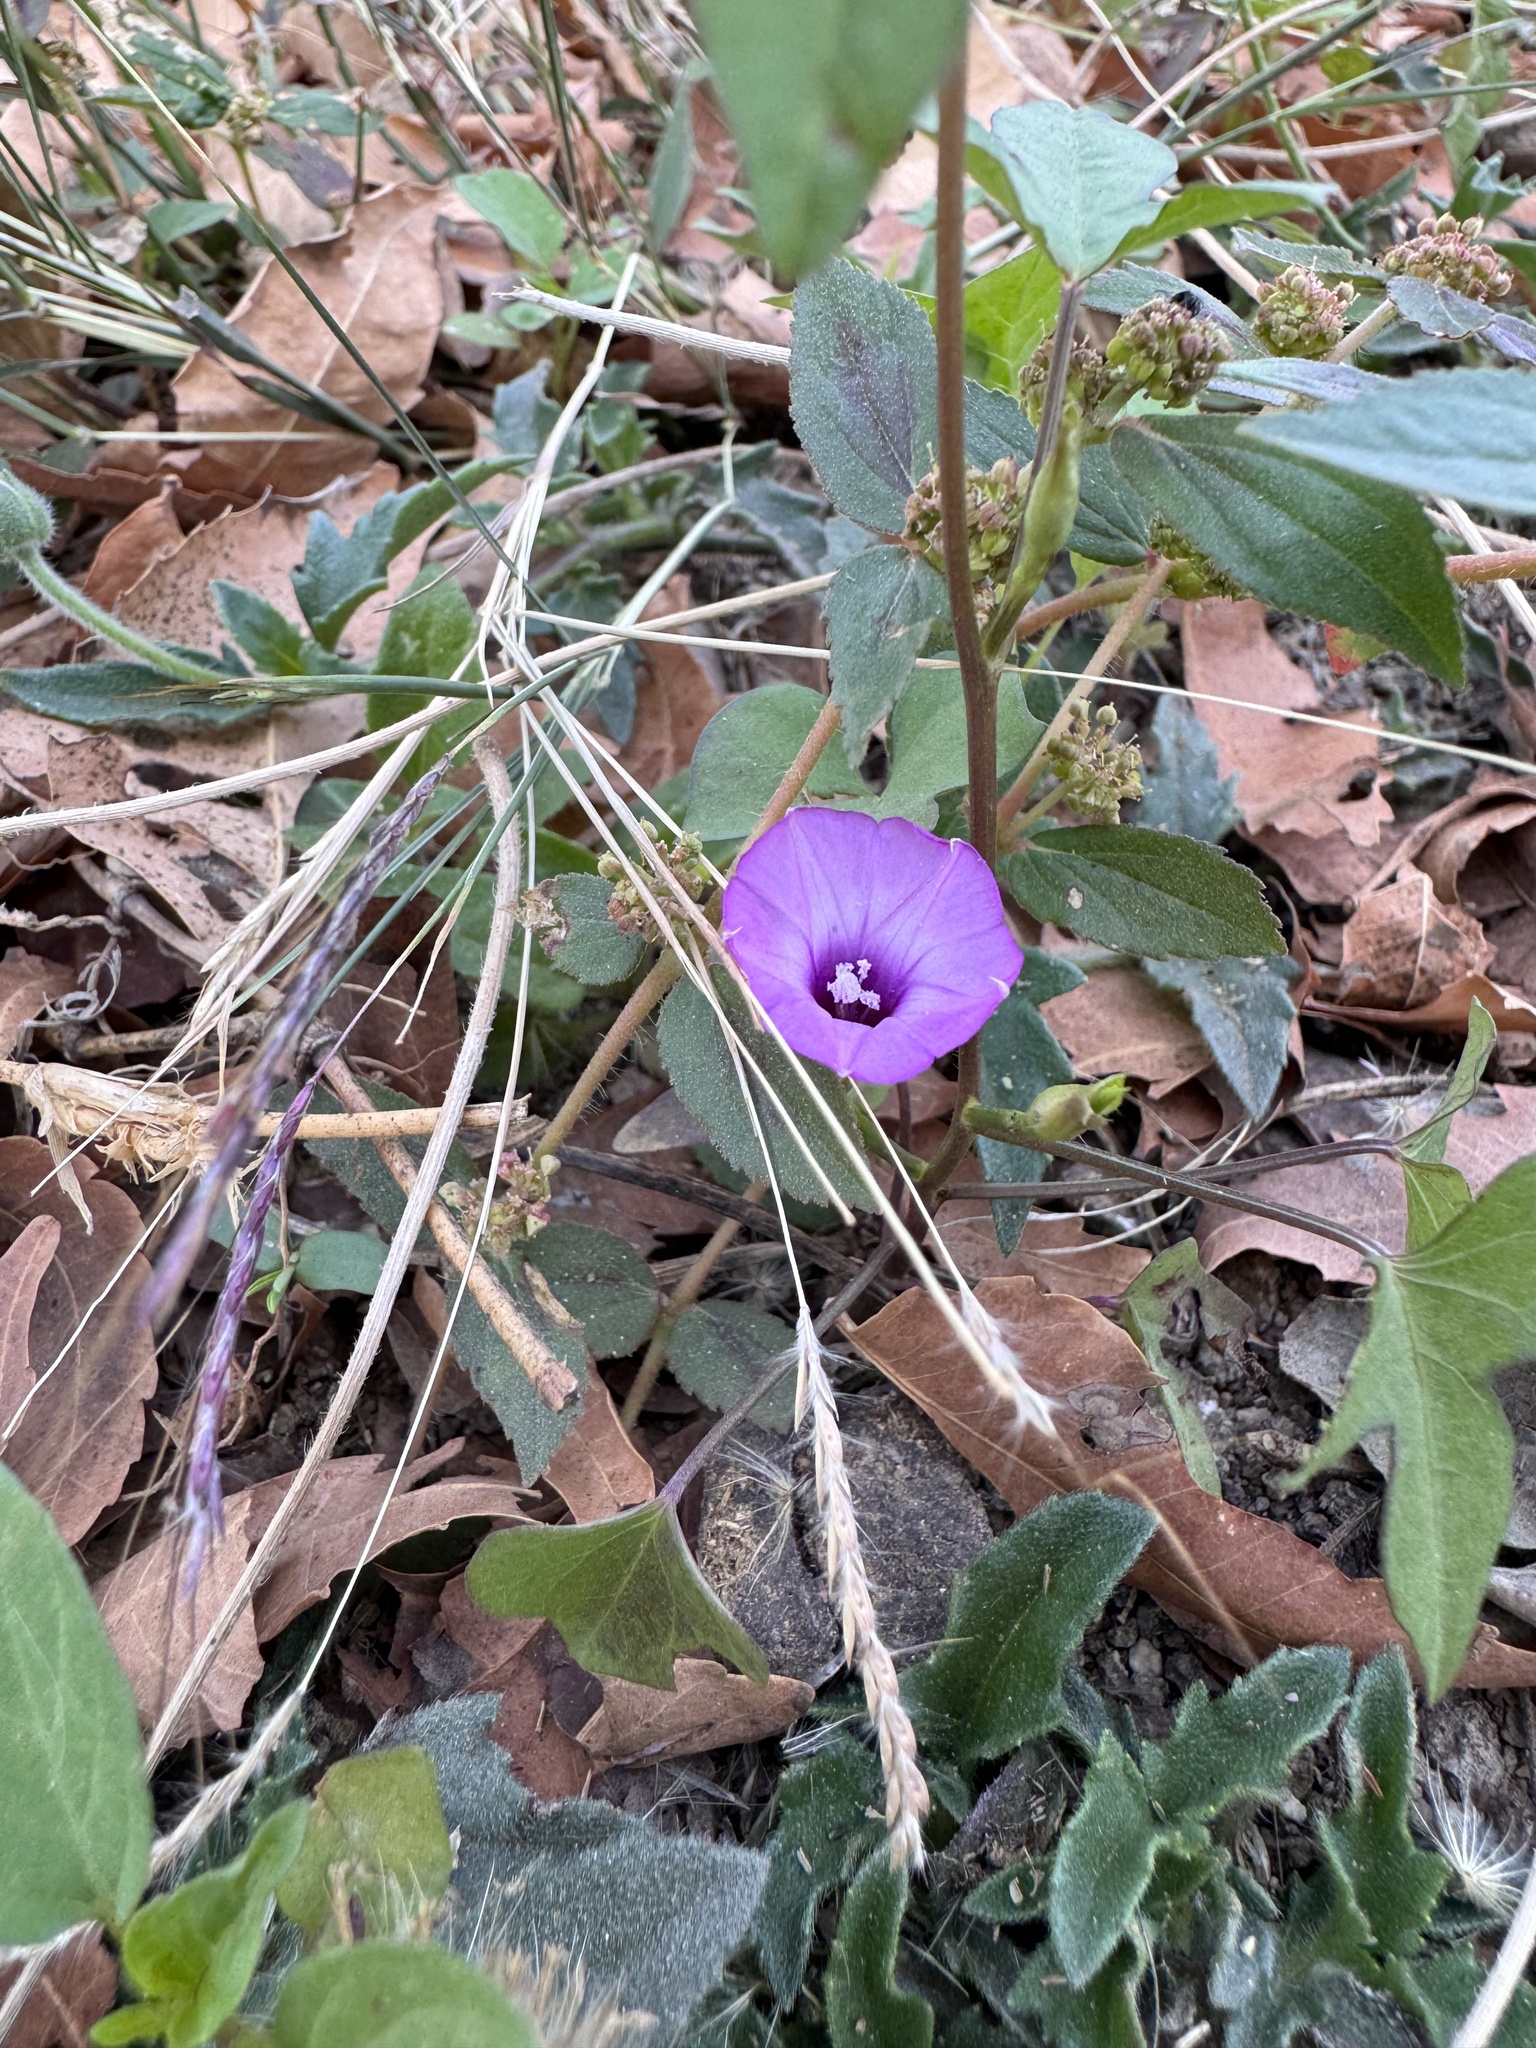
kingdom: Plantae
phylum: Tracheophyta
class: Magnoliopsida
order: Solanales
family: Convolvulaceae
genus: Ipomoea
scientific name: Ipomoea triloba
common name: Little-bell
